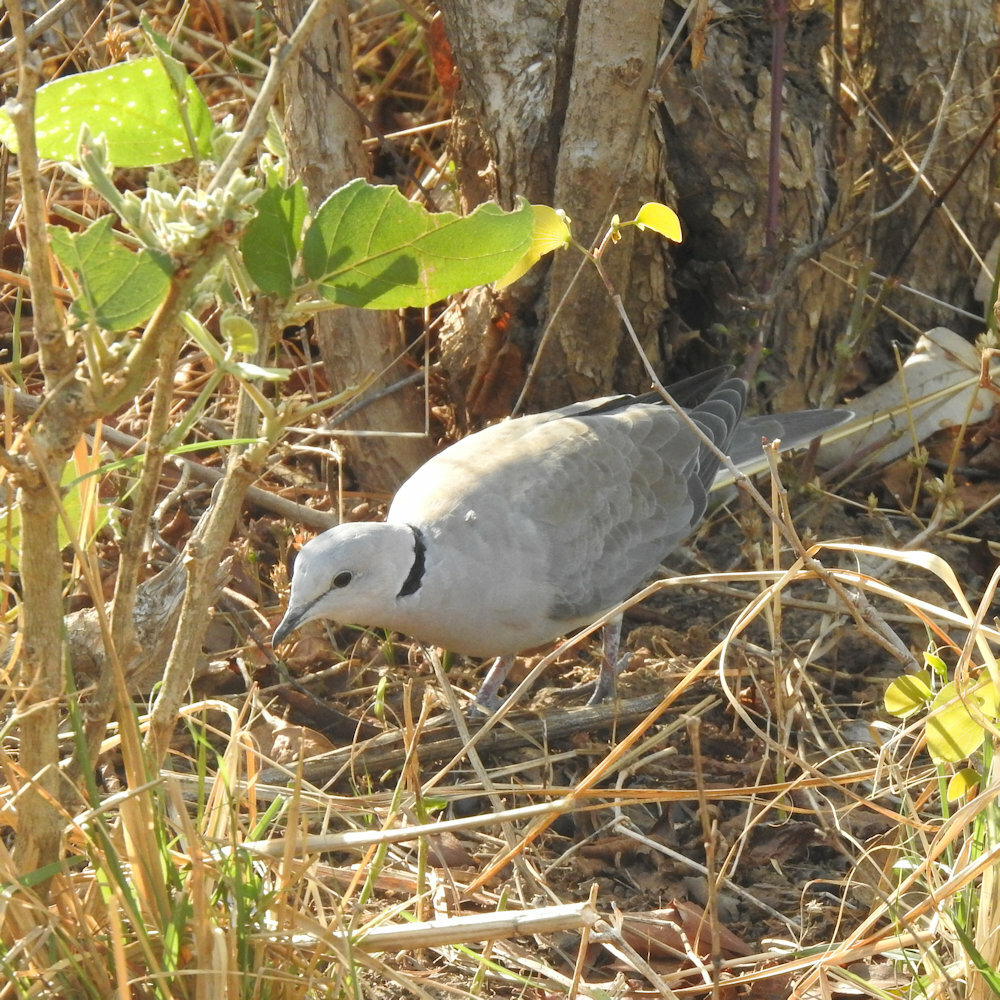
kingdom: Animalia
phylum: Chordata
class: Aves
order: Columbiformes
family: Columbidae
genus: Streptopelia
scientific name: Streptopelia capicola
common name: Ring-necked dove
